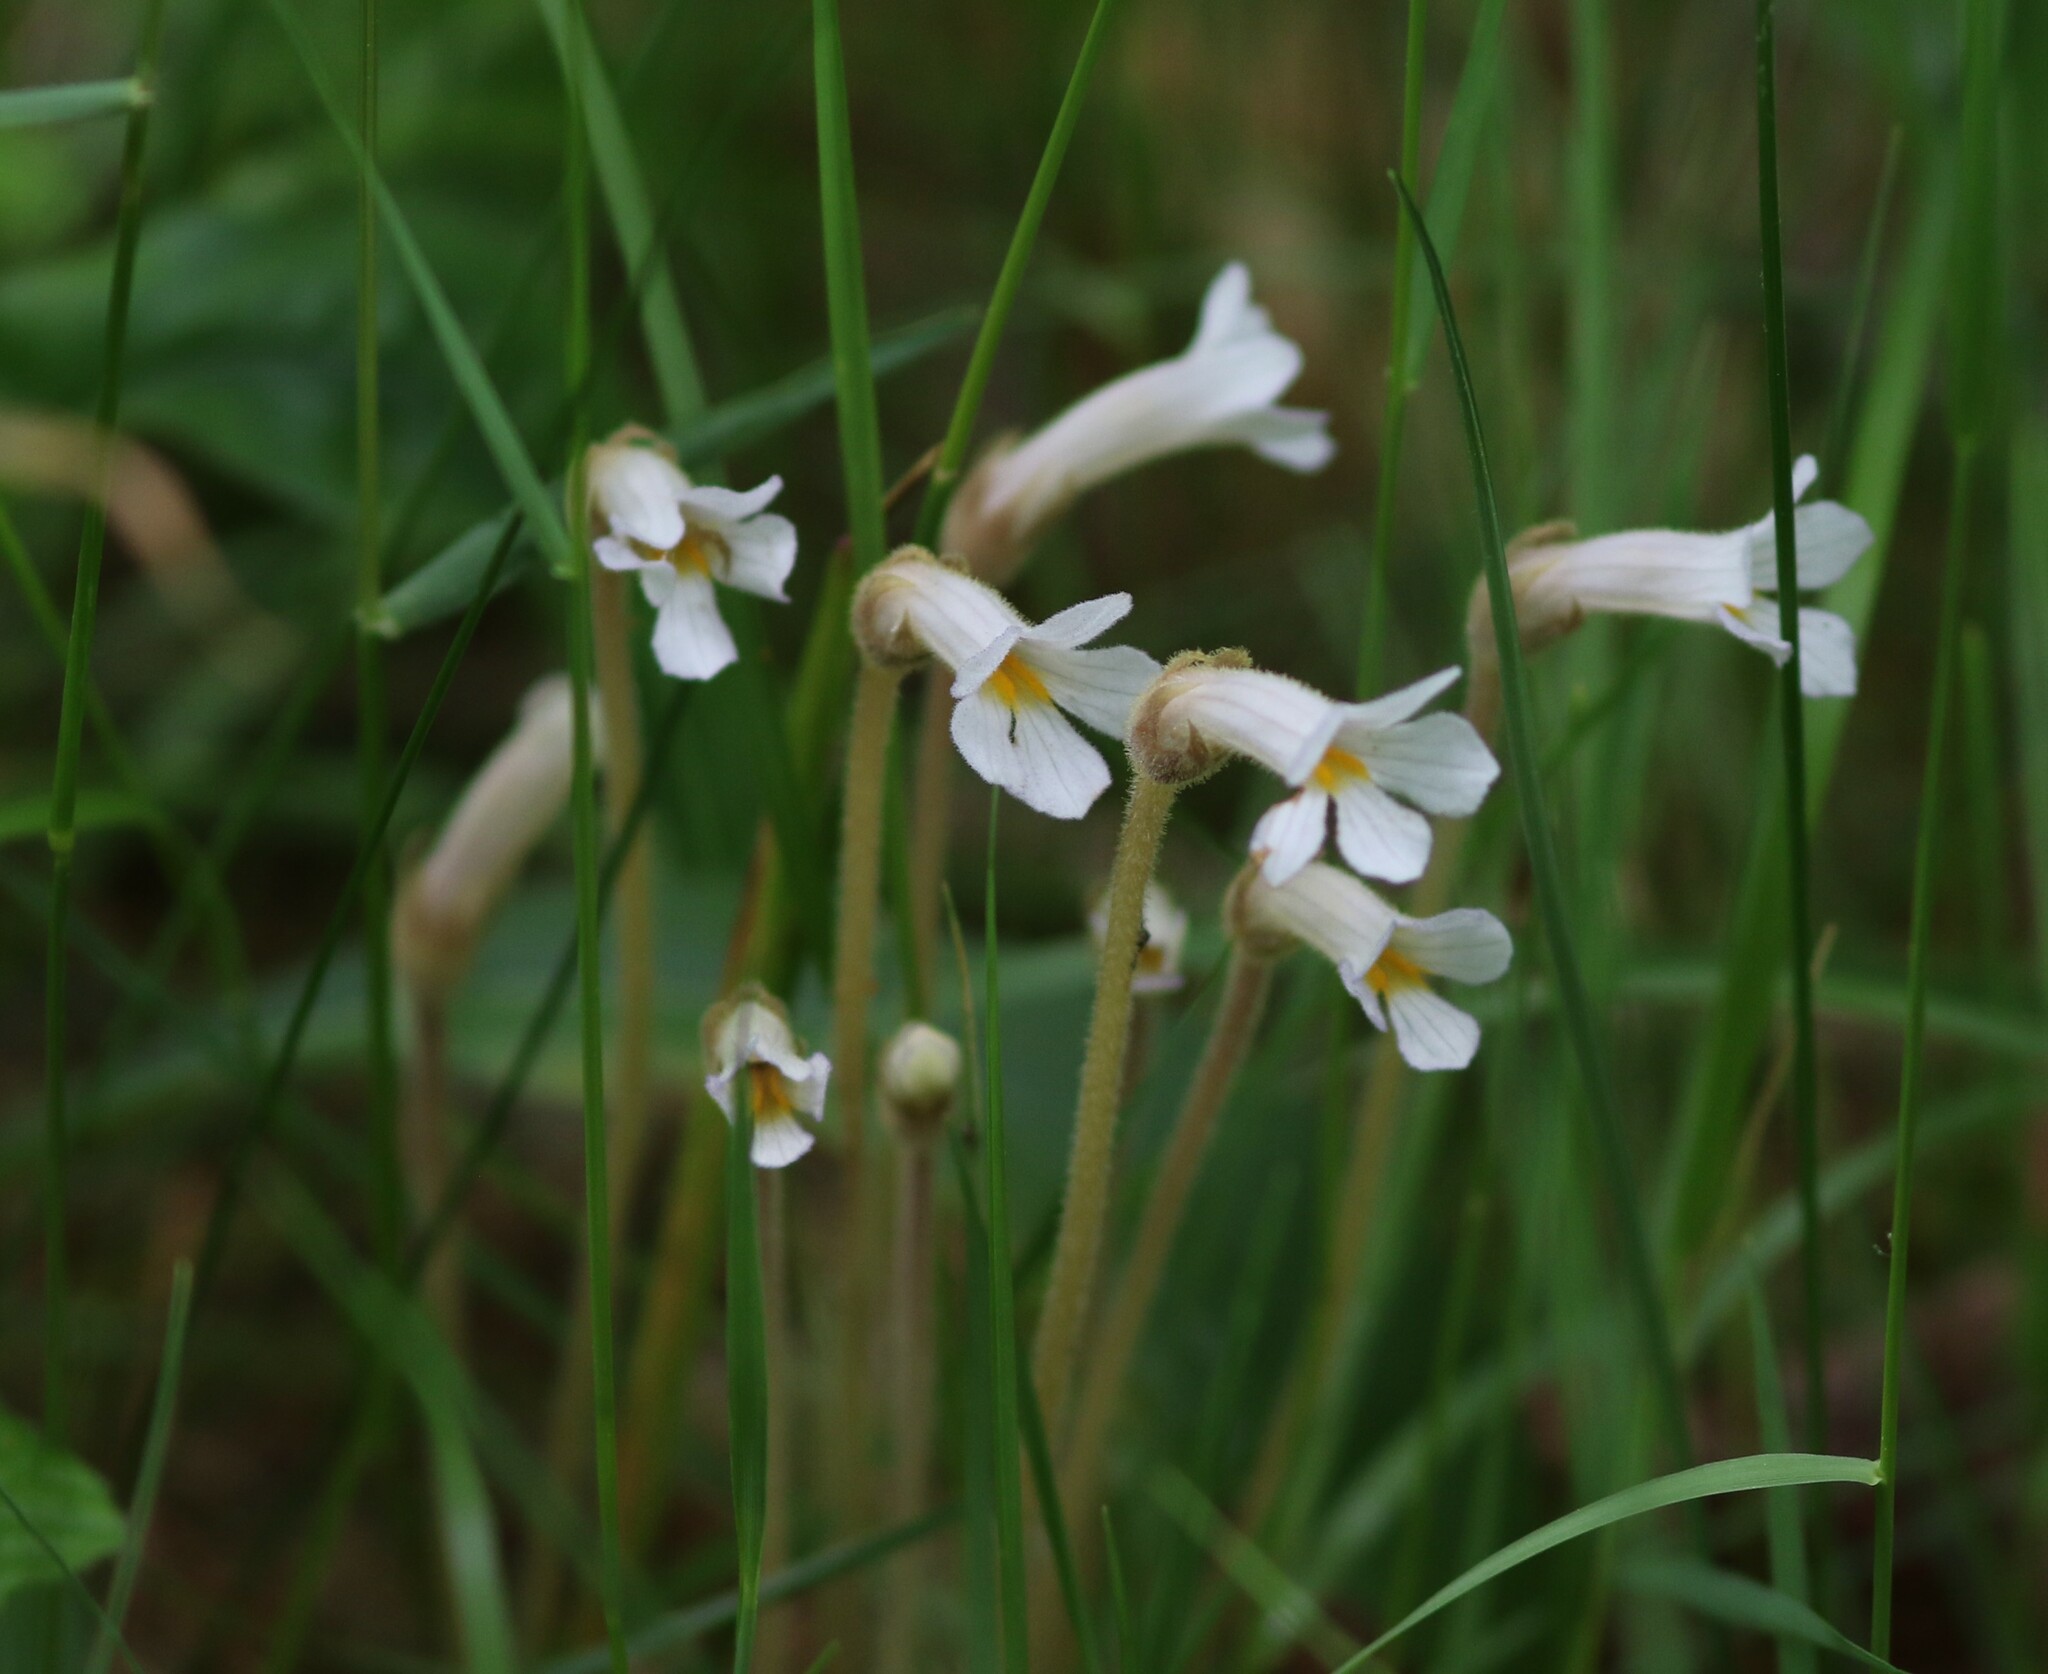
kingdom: Plantae
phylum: Tracheophyta
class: Magnoliopsida
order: Lamiales
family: Orobanchaceae
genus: Aphyllon
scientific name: Aphyllon uniflorum
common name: One-flowered broomrape
